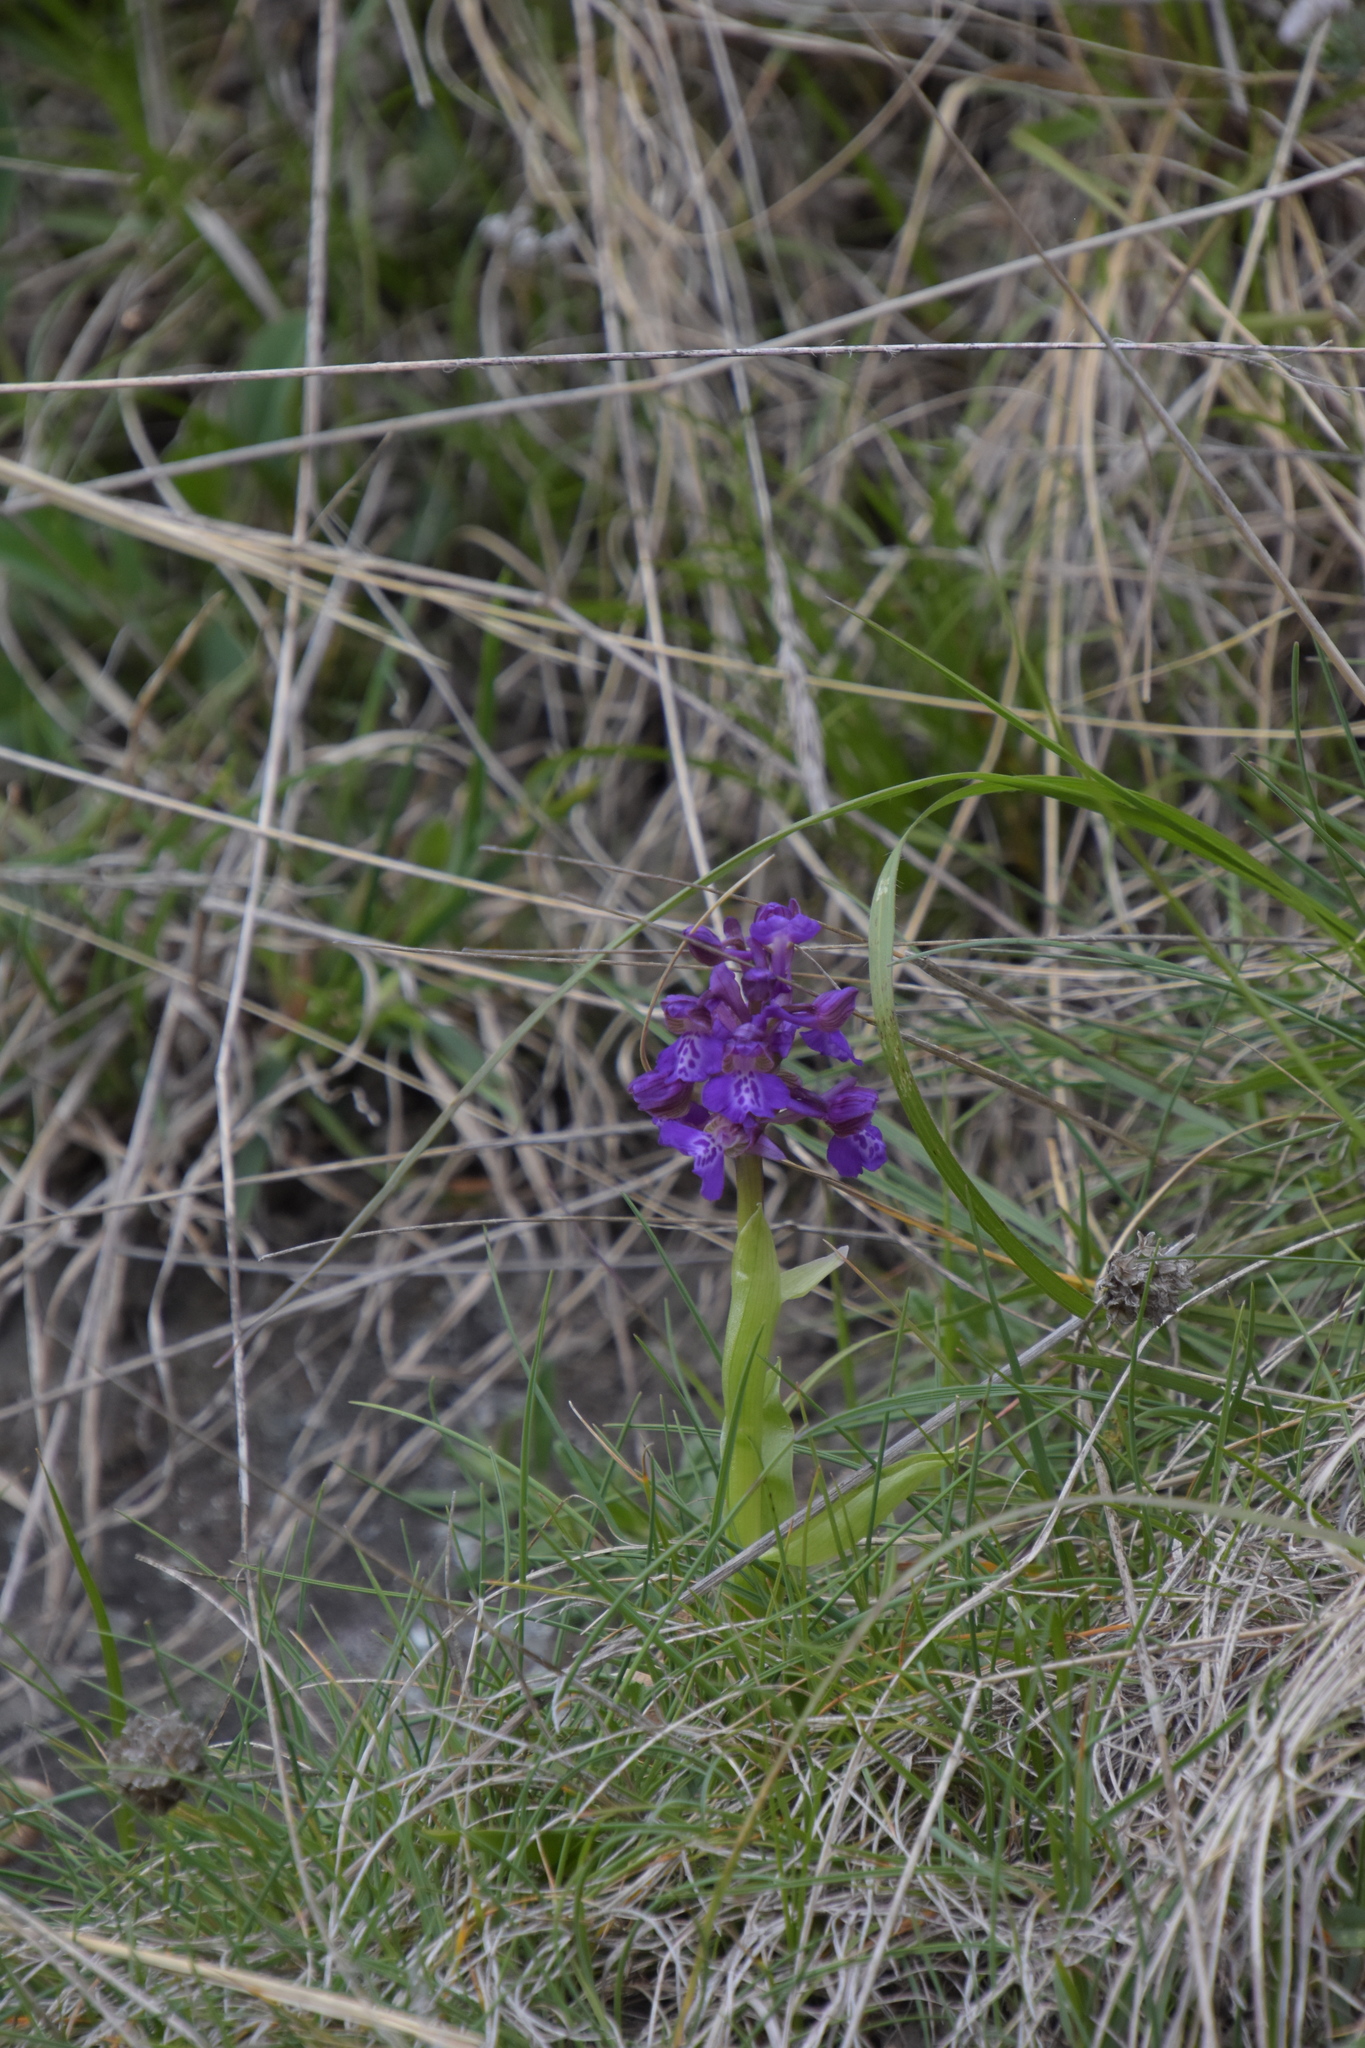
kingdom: Plantae
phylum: Tracheophyta
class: Liliopsida
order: Asparagales
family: Orchidaceae
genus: Anacamptis
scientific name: Anacamptis morio
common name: Green-winged orchid
